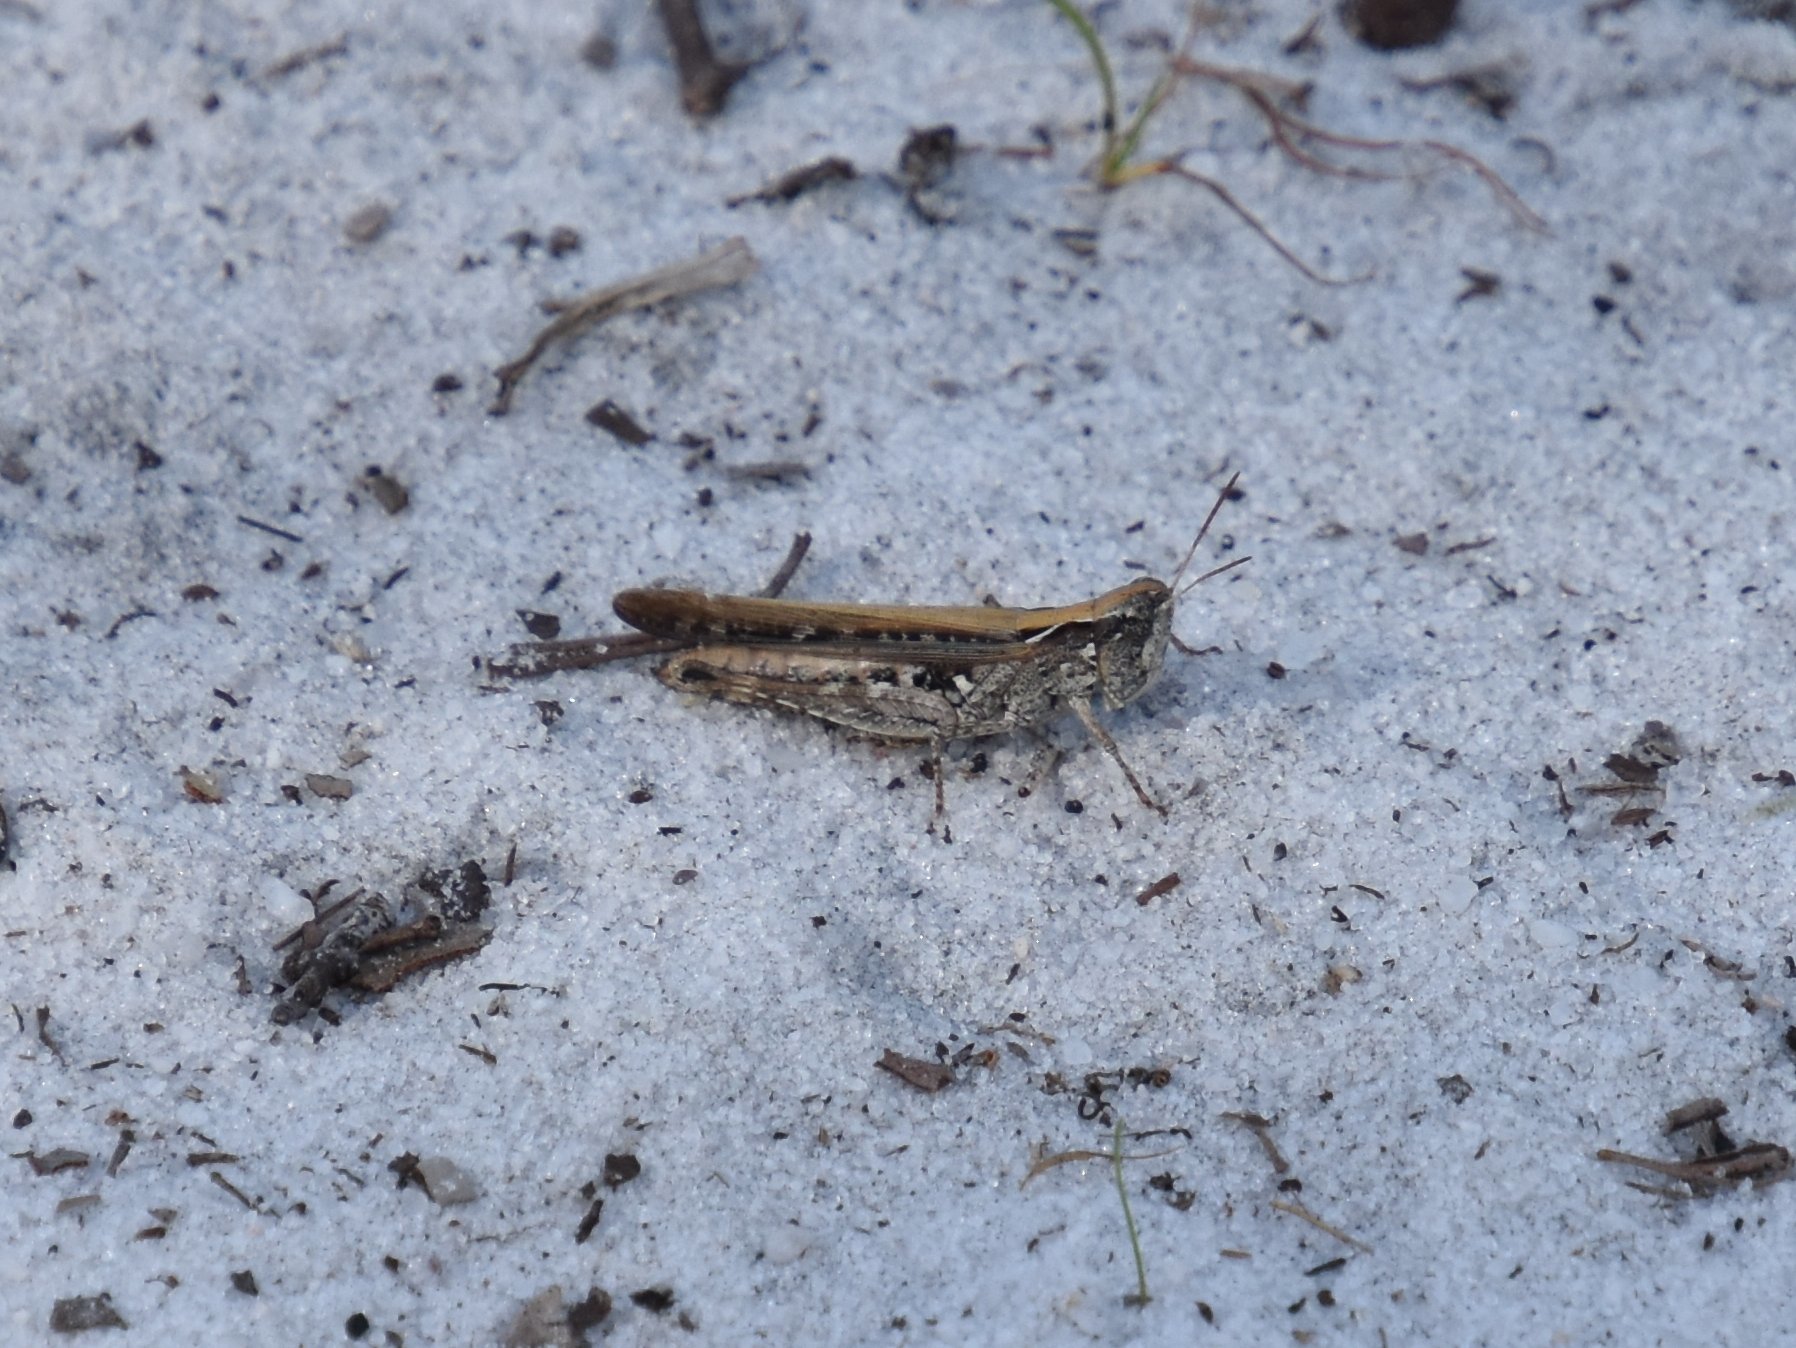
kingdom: Animalia
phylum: Arthropoda
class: Insecta
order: Orthoptera
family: Acrididae
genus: Orphulella
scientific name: Orphulella pelidna
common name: Spotted-wing grasshopper
